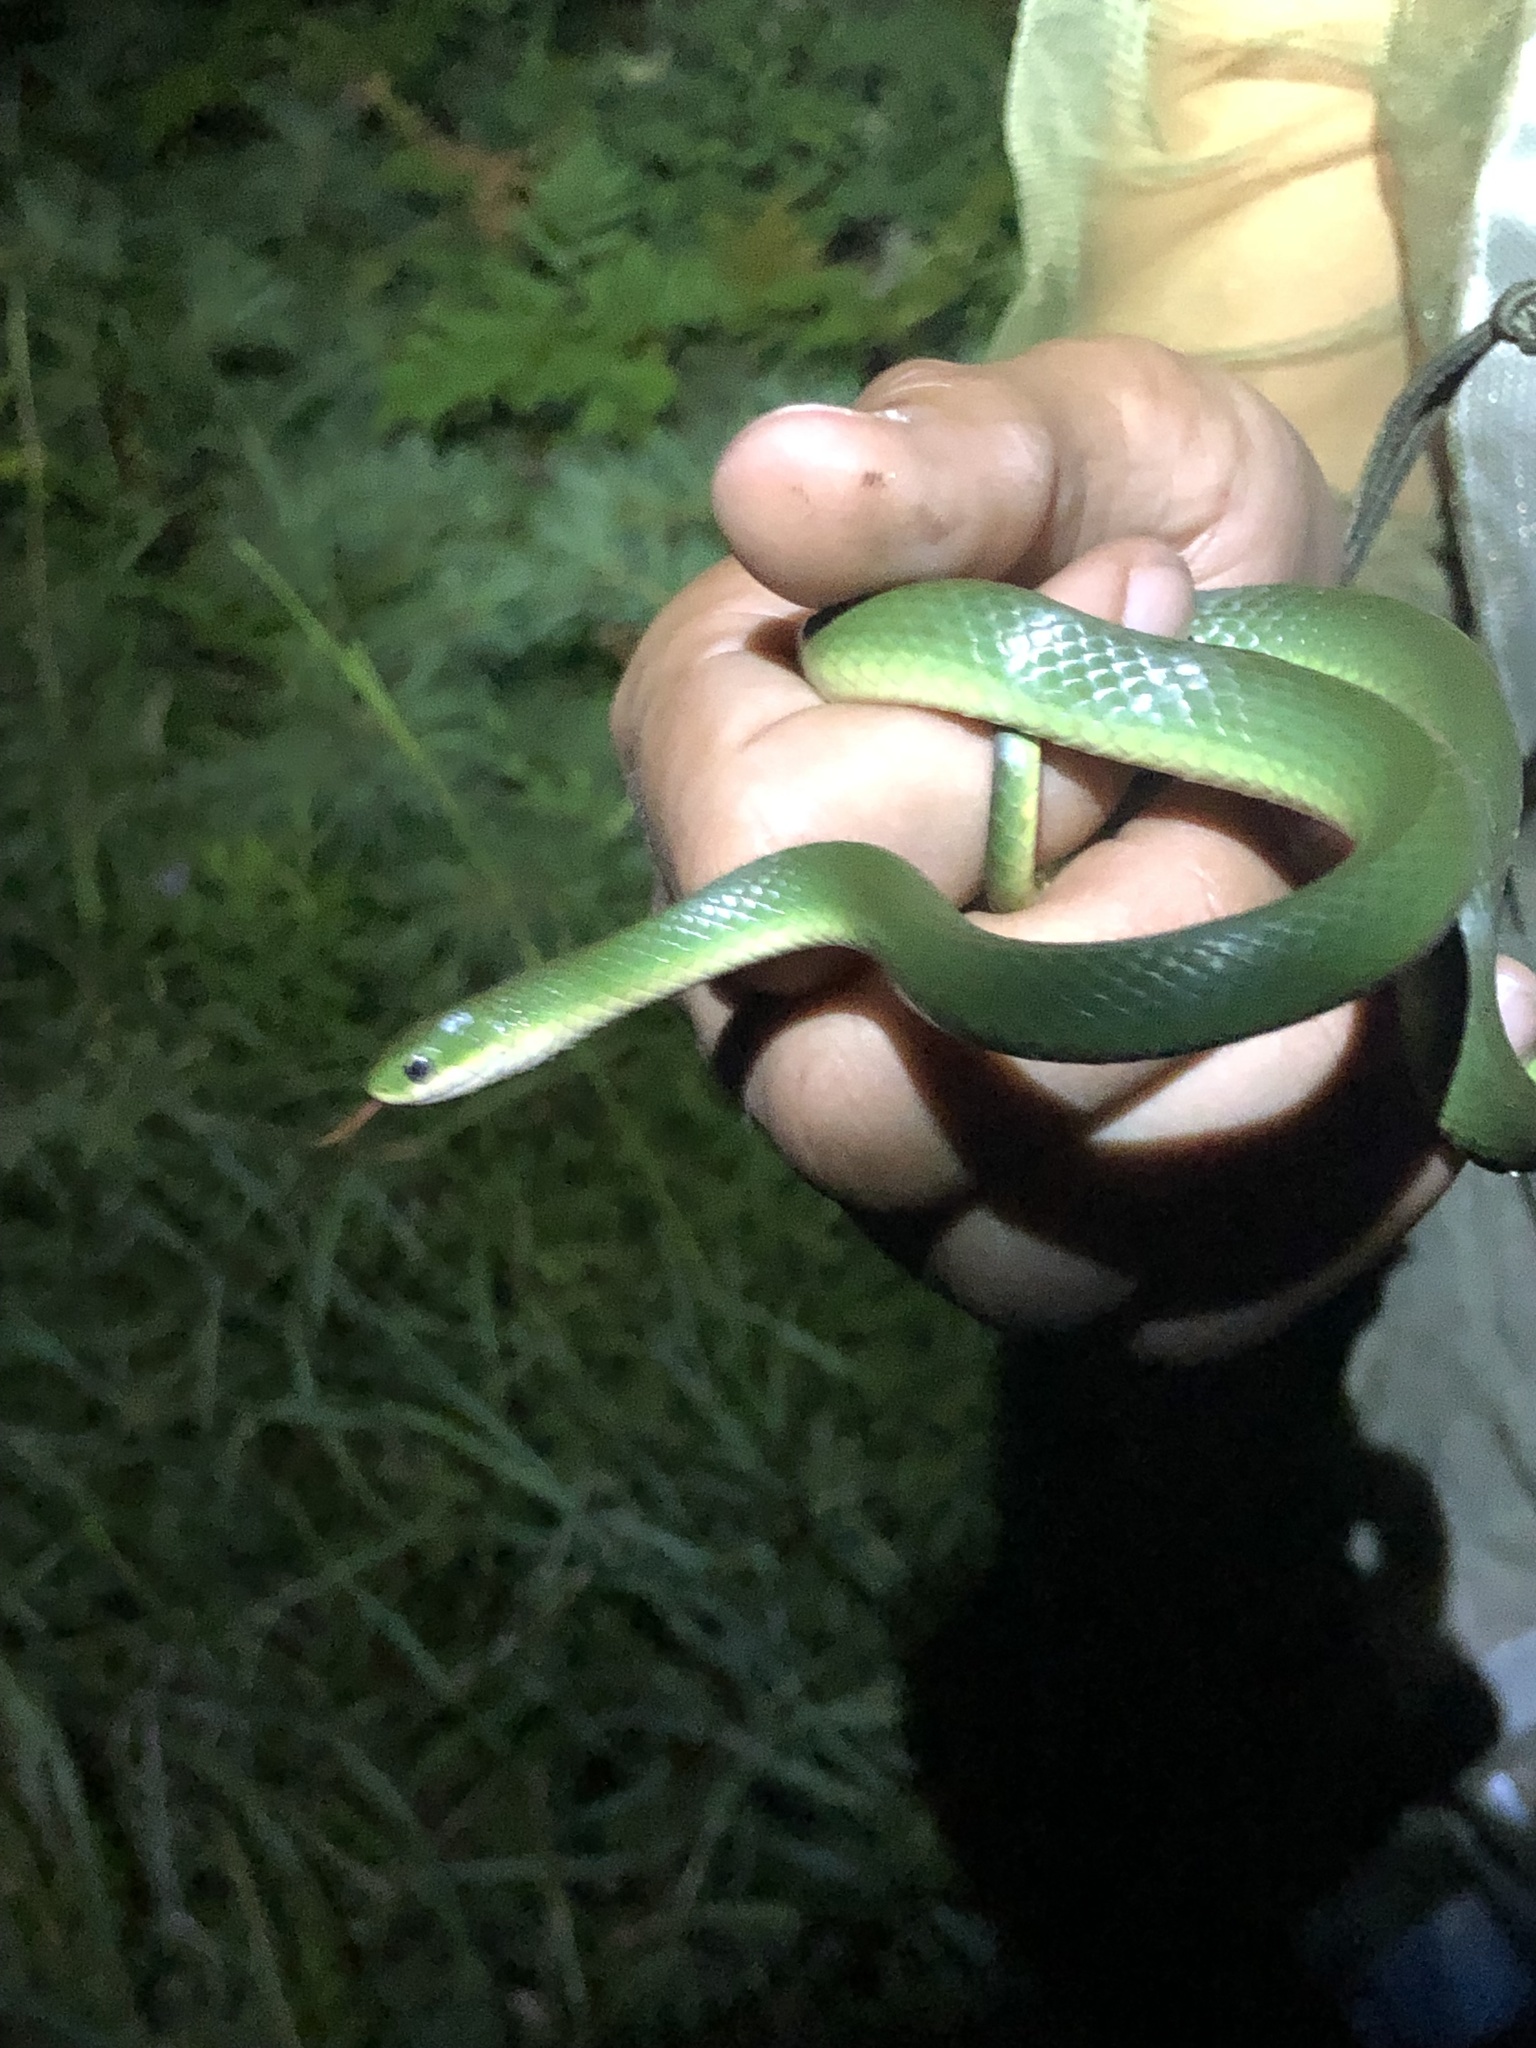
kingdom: Animalia
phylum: Chordata
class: Squamata
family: Colubridae
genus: Opheodrys
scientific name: Opheodrys vernalis
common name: Smooth green snake
